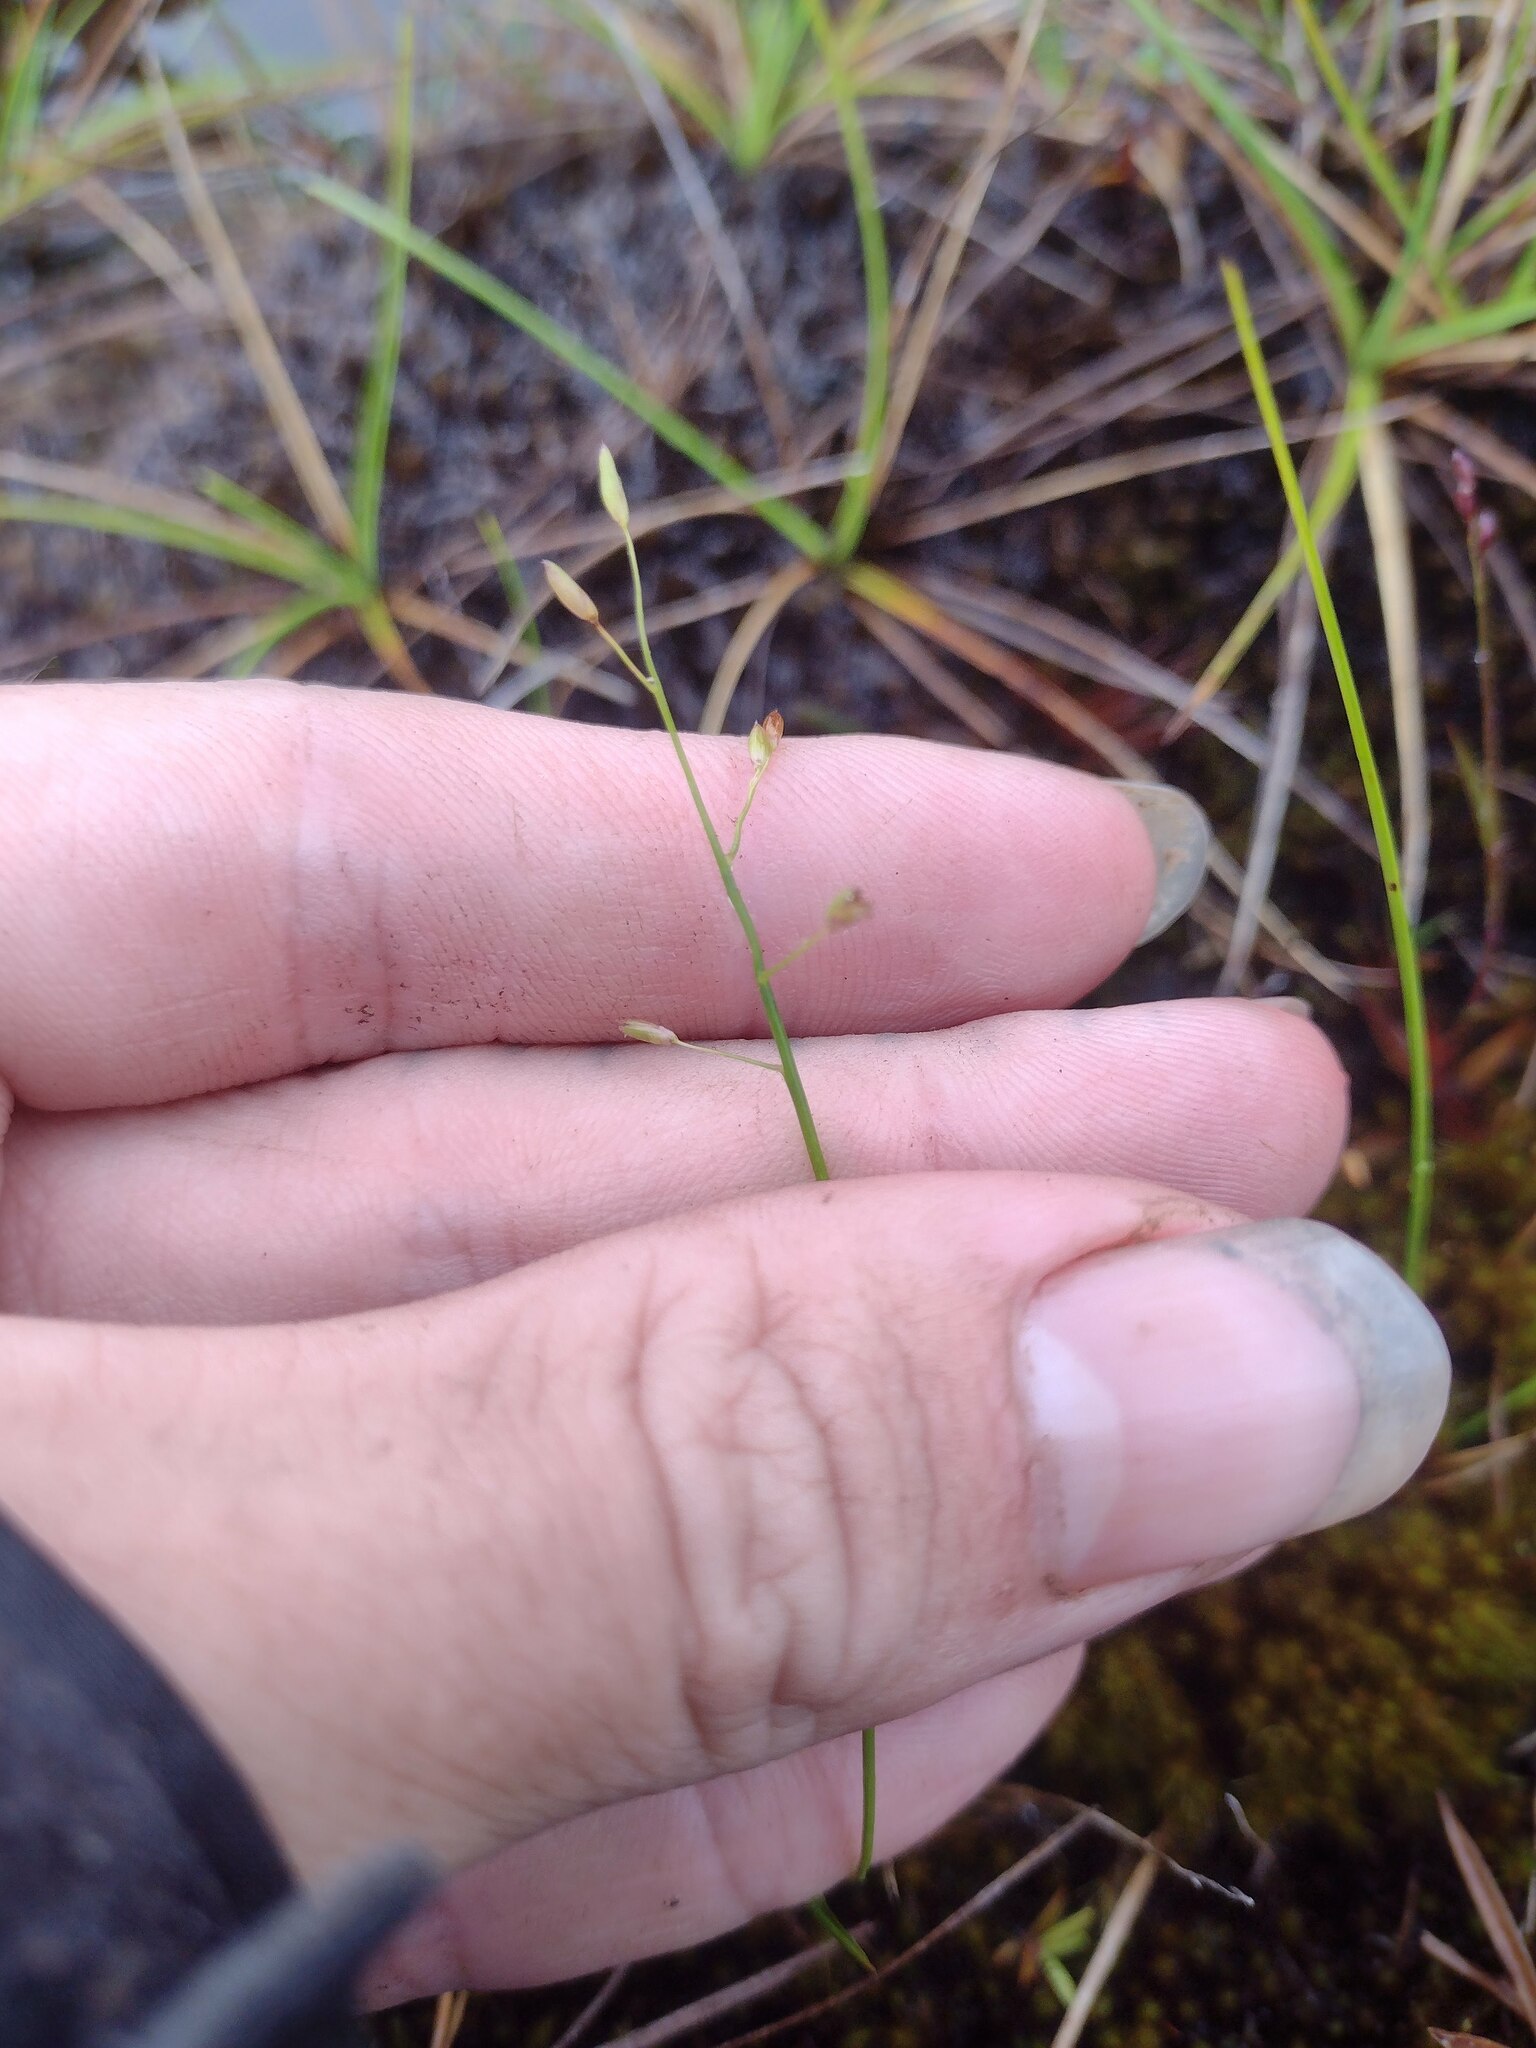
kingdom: Plantae
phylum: Tracheophyta
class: Liliopsida
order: Poales
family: Poaceae
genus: Dichanthelium
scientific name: Dichanthelium cynodon
